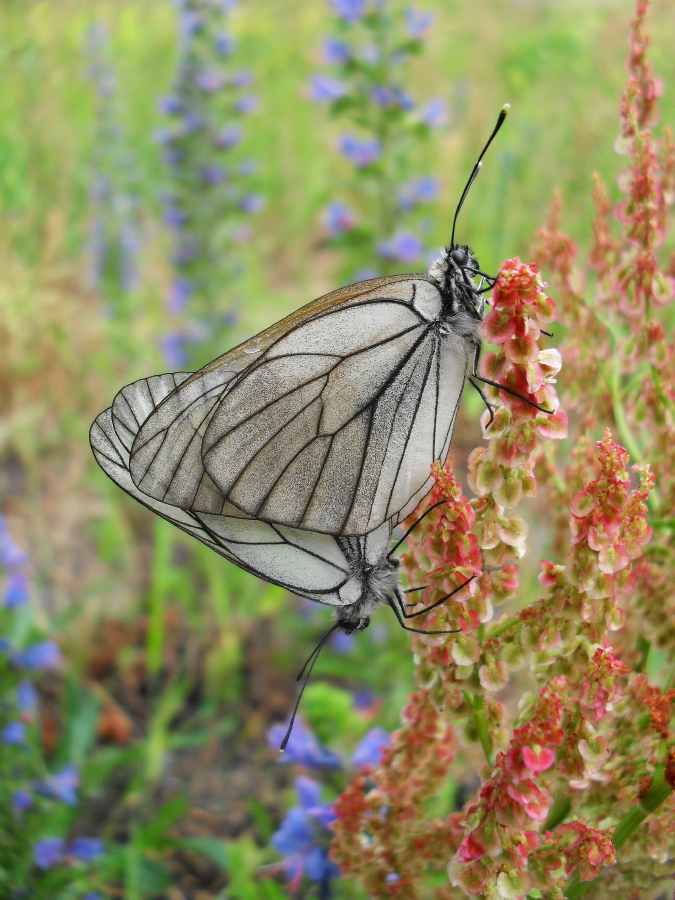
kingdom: Animalia
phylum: Arthropoda
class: Insecta
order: Lepidoptera
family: Pieridae
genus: Aporia
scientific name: Aporia crataegi
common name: Black-veined white
